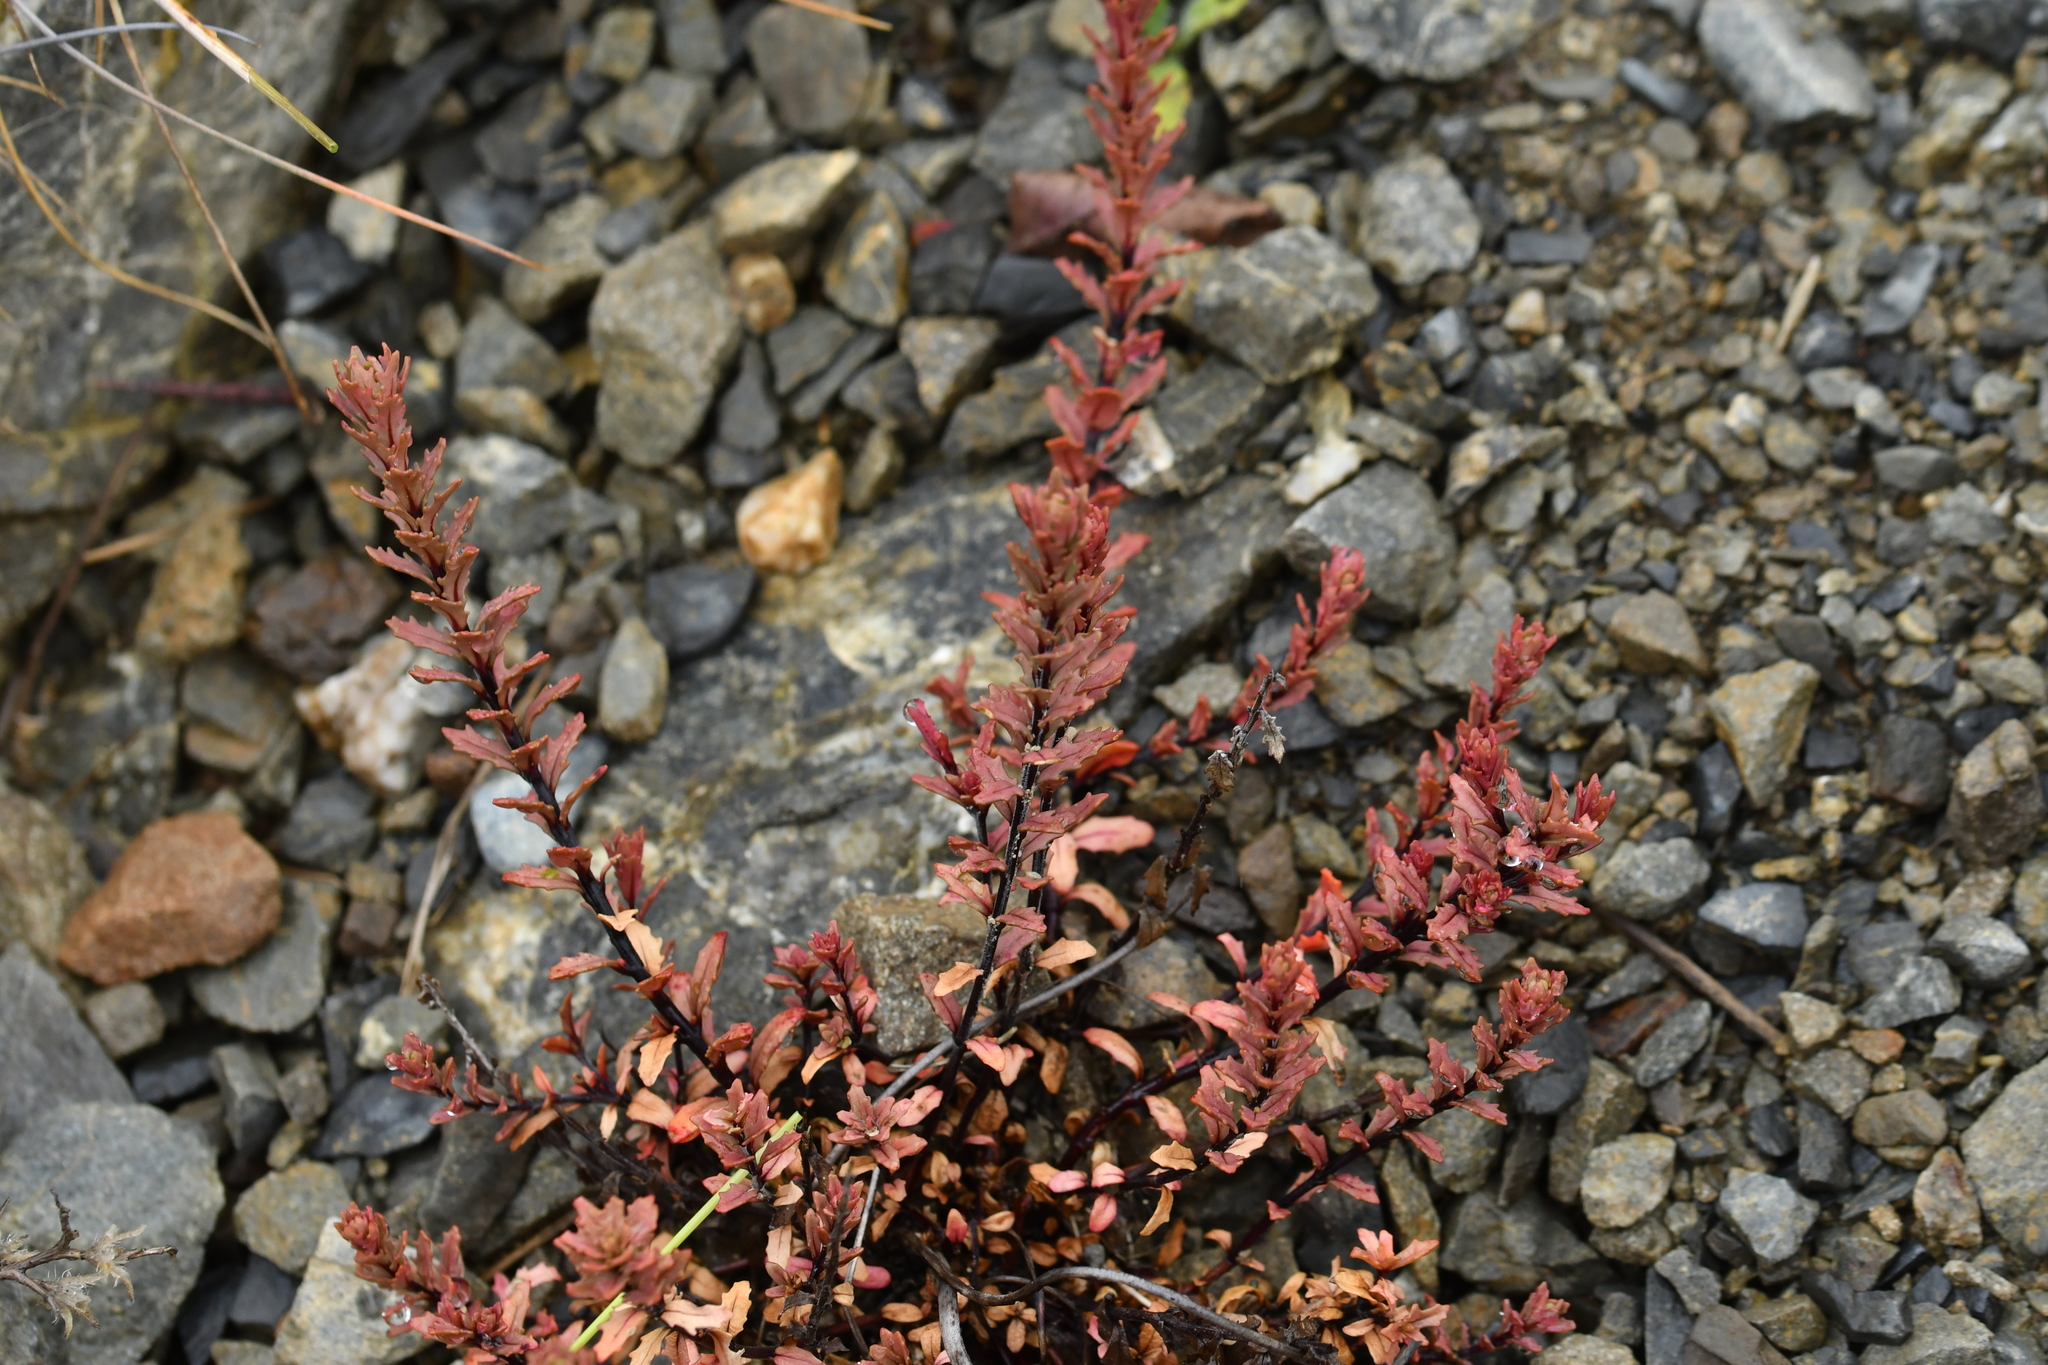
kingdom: Plantae
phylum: Tracheophyta
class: Magnoliopsida
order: Myrtales
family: Onagraceae
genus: Epilobium
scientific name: Epilobium melanocaulon
